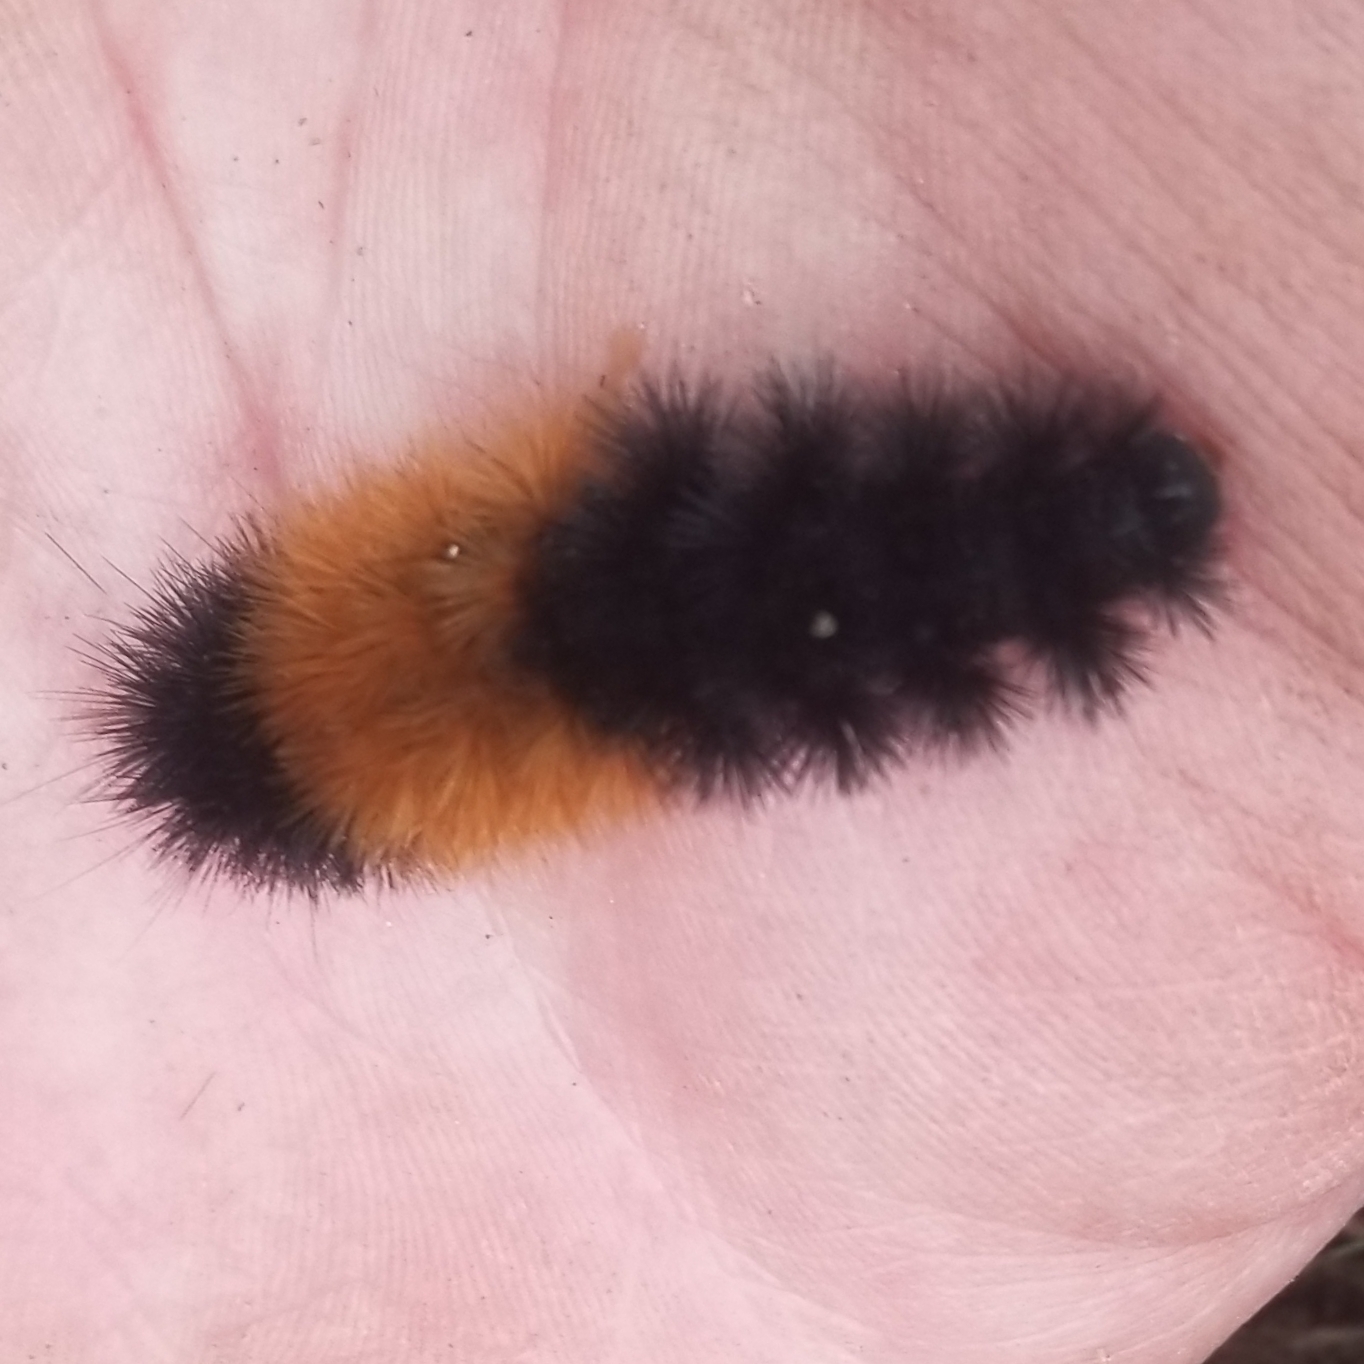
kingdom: Animalia
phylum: Arthropoda
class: Insecta
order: Lepidoptera
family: Erebidae
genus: Pyrrharctia
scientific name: Pyrrharctia isabella
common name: Isabella tiger moth
